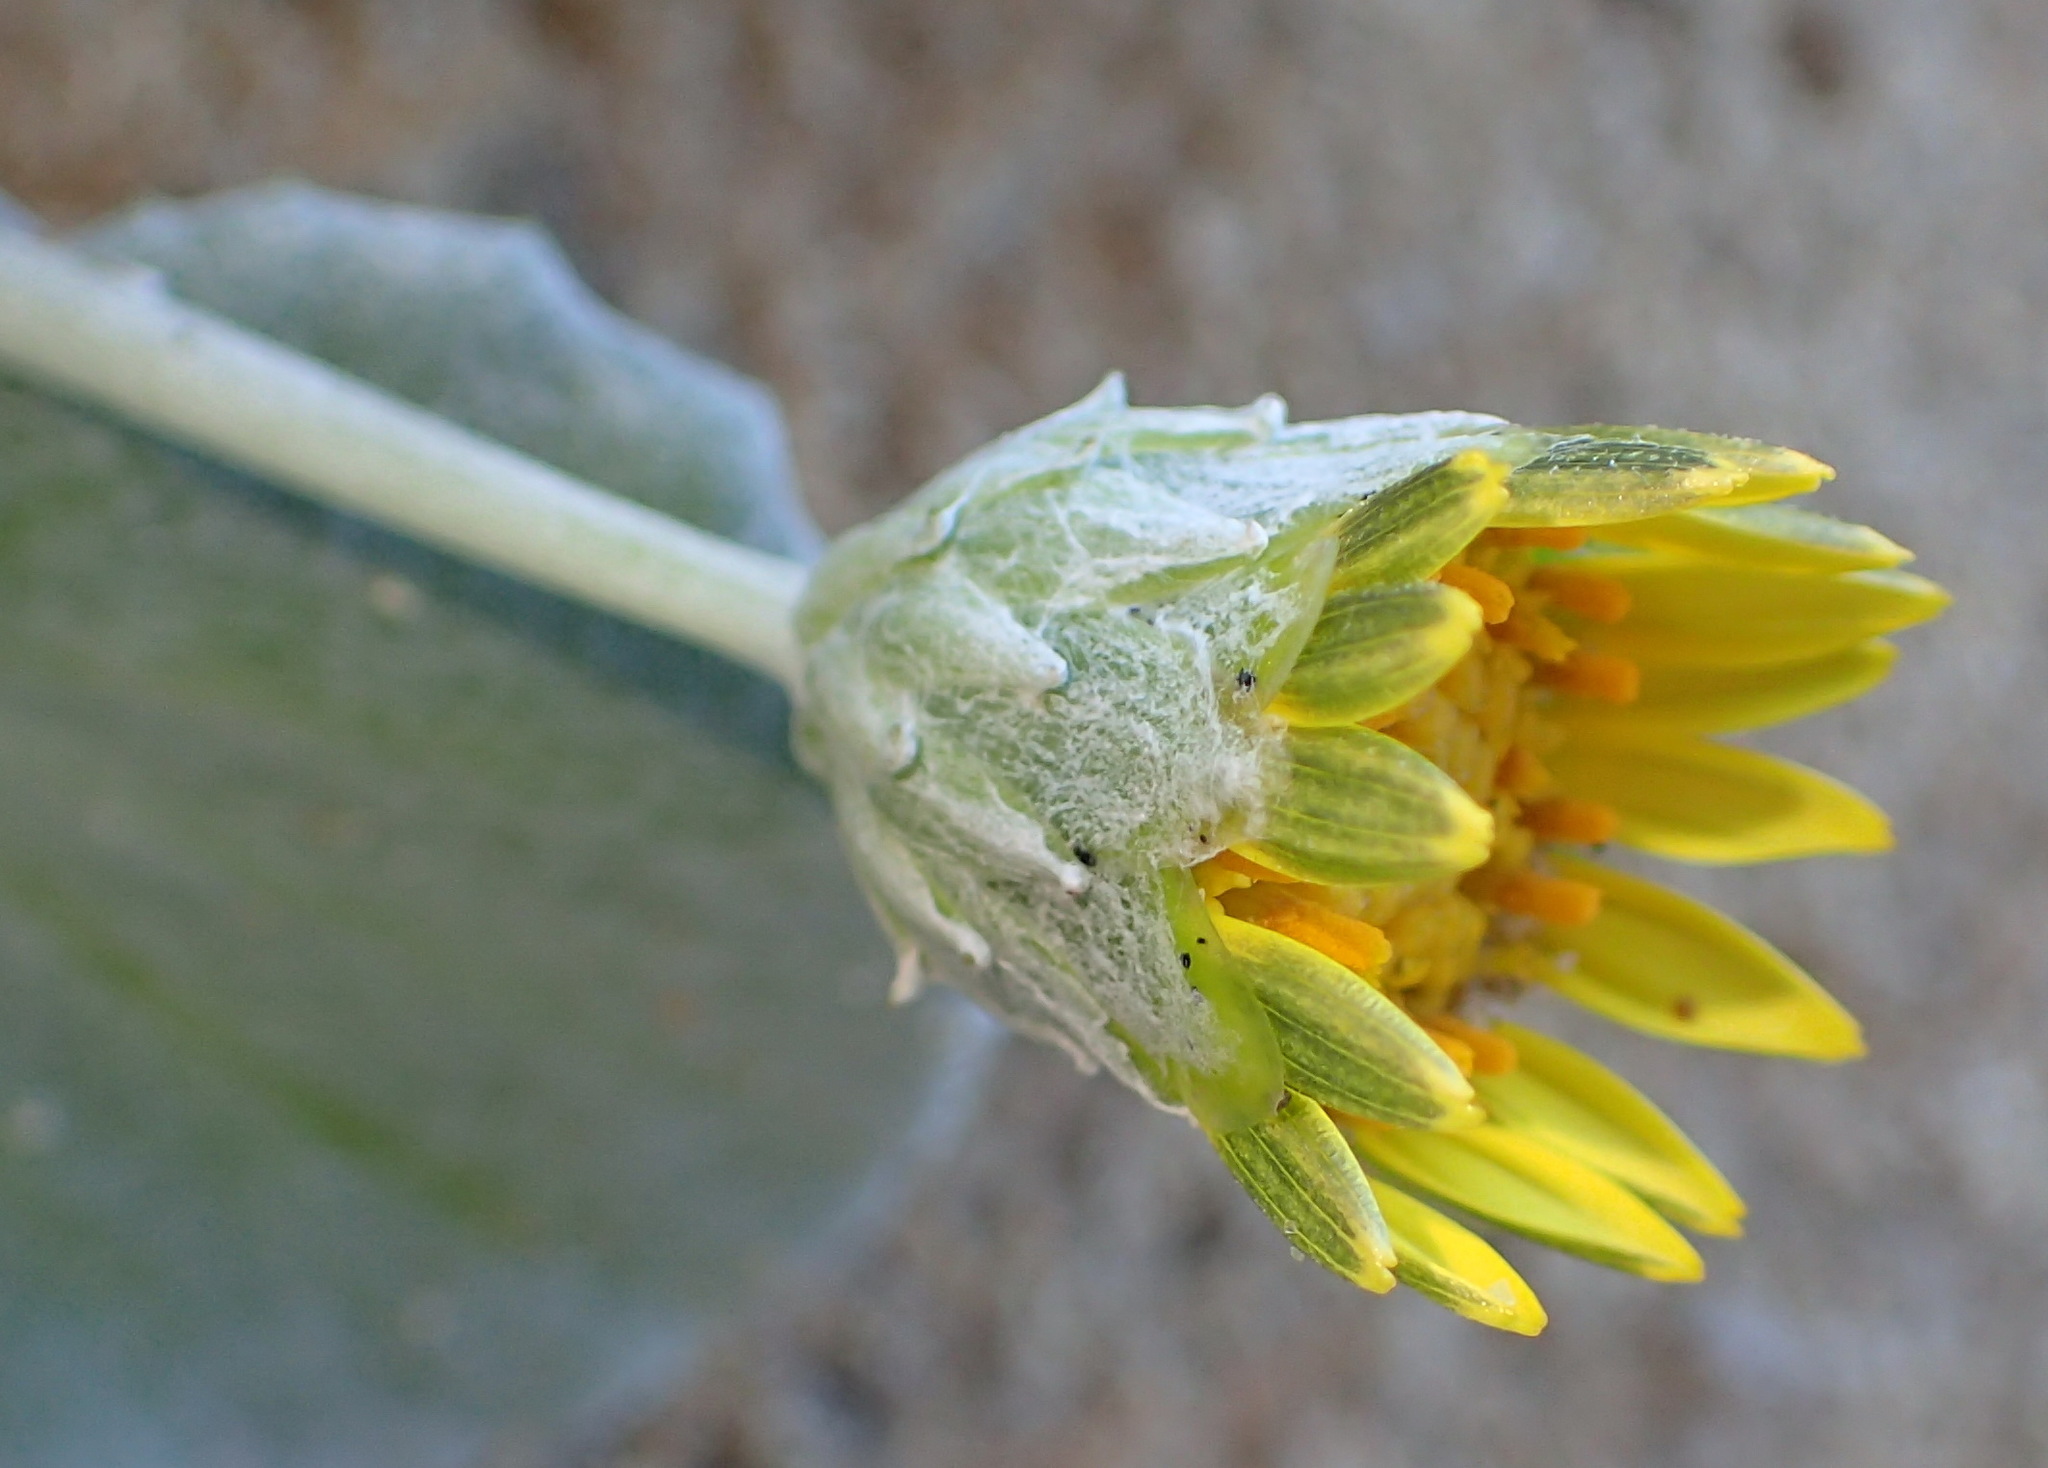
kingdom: Plantae
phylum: Tracheophyta
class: Magnoliopsida
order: Asterales
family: Asteraceae
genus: Arctotheca
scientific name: Arctotheca populifolia
